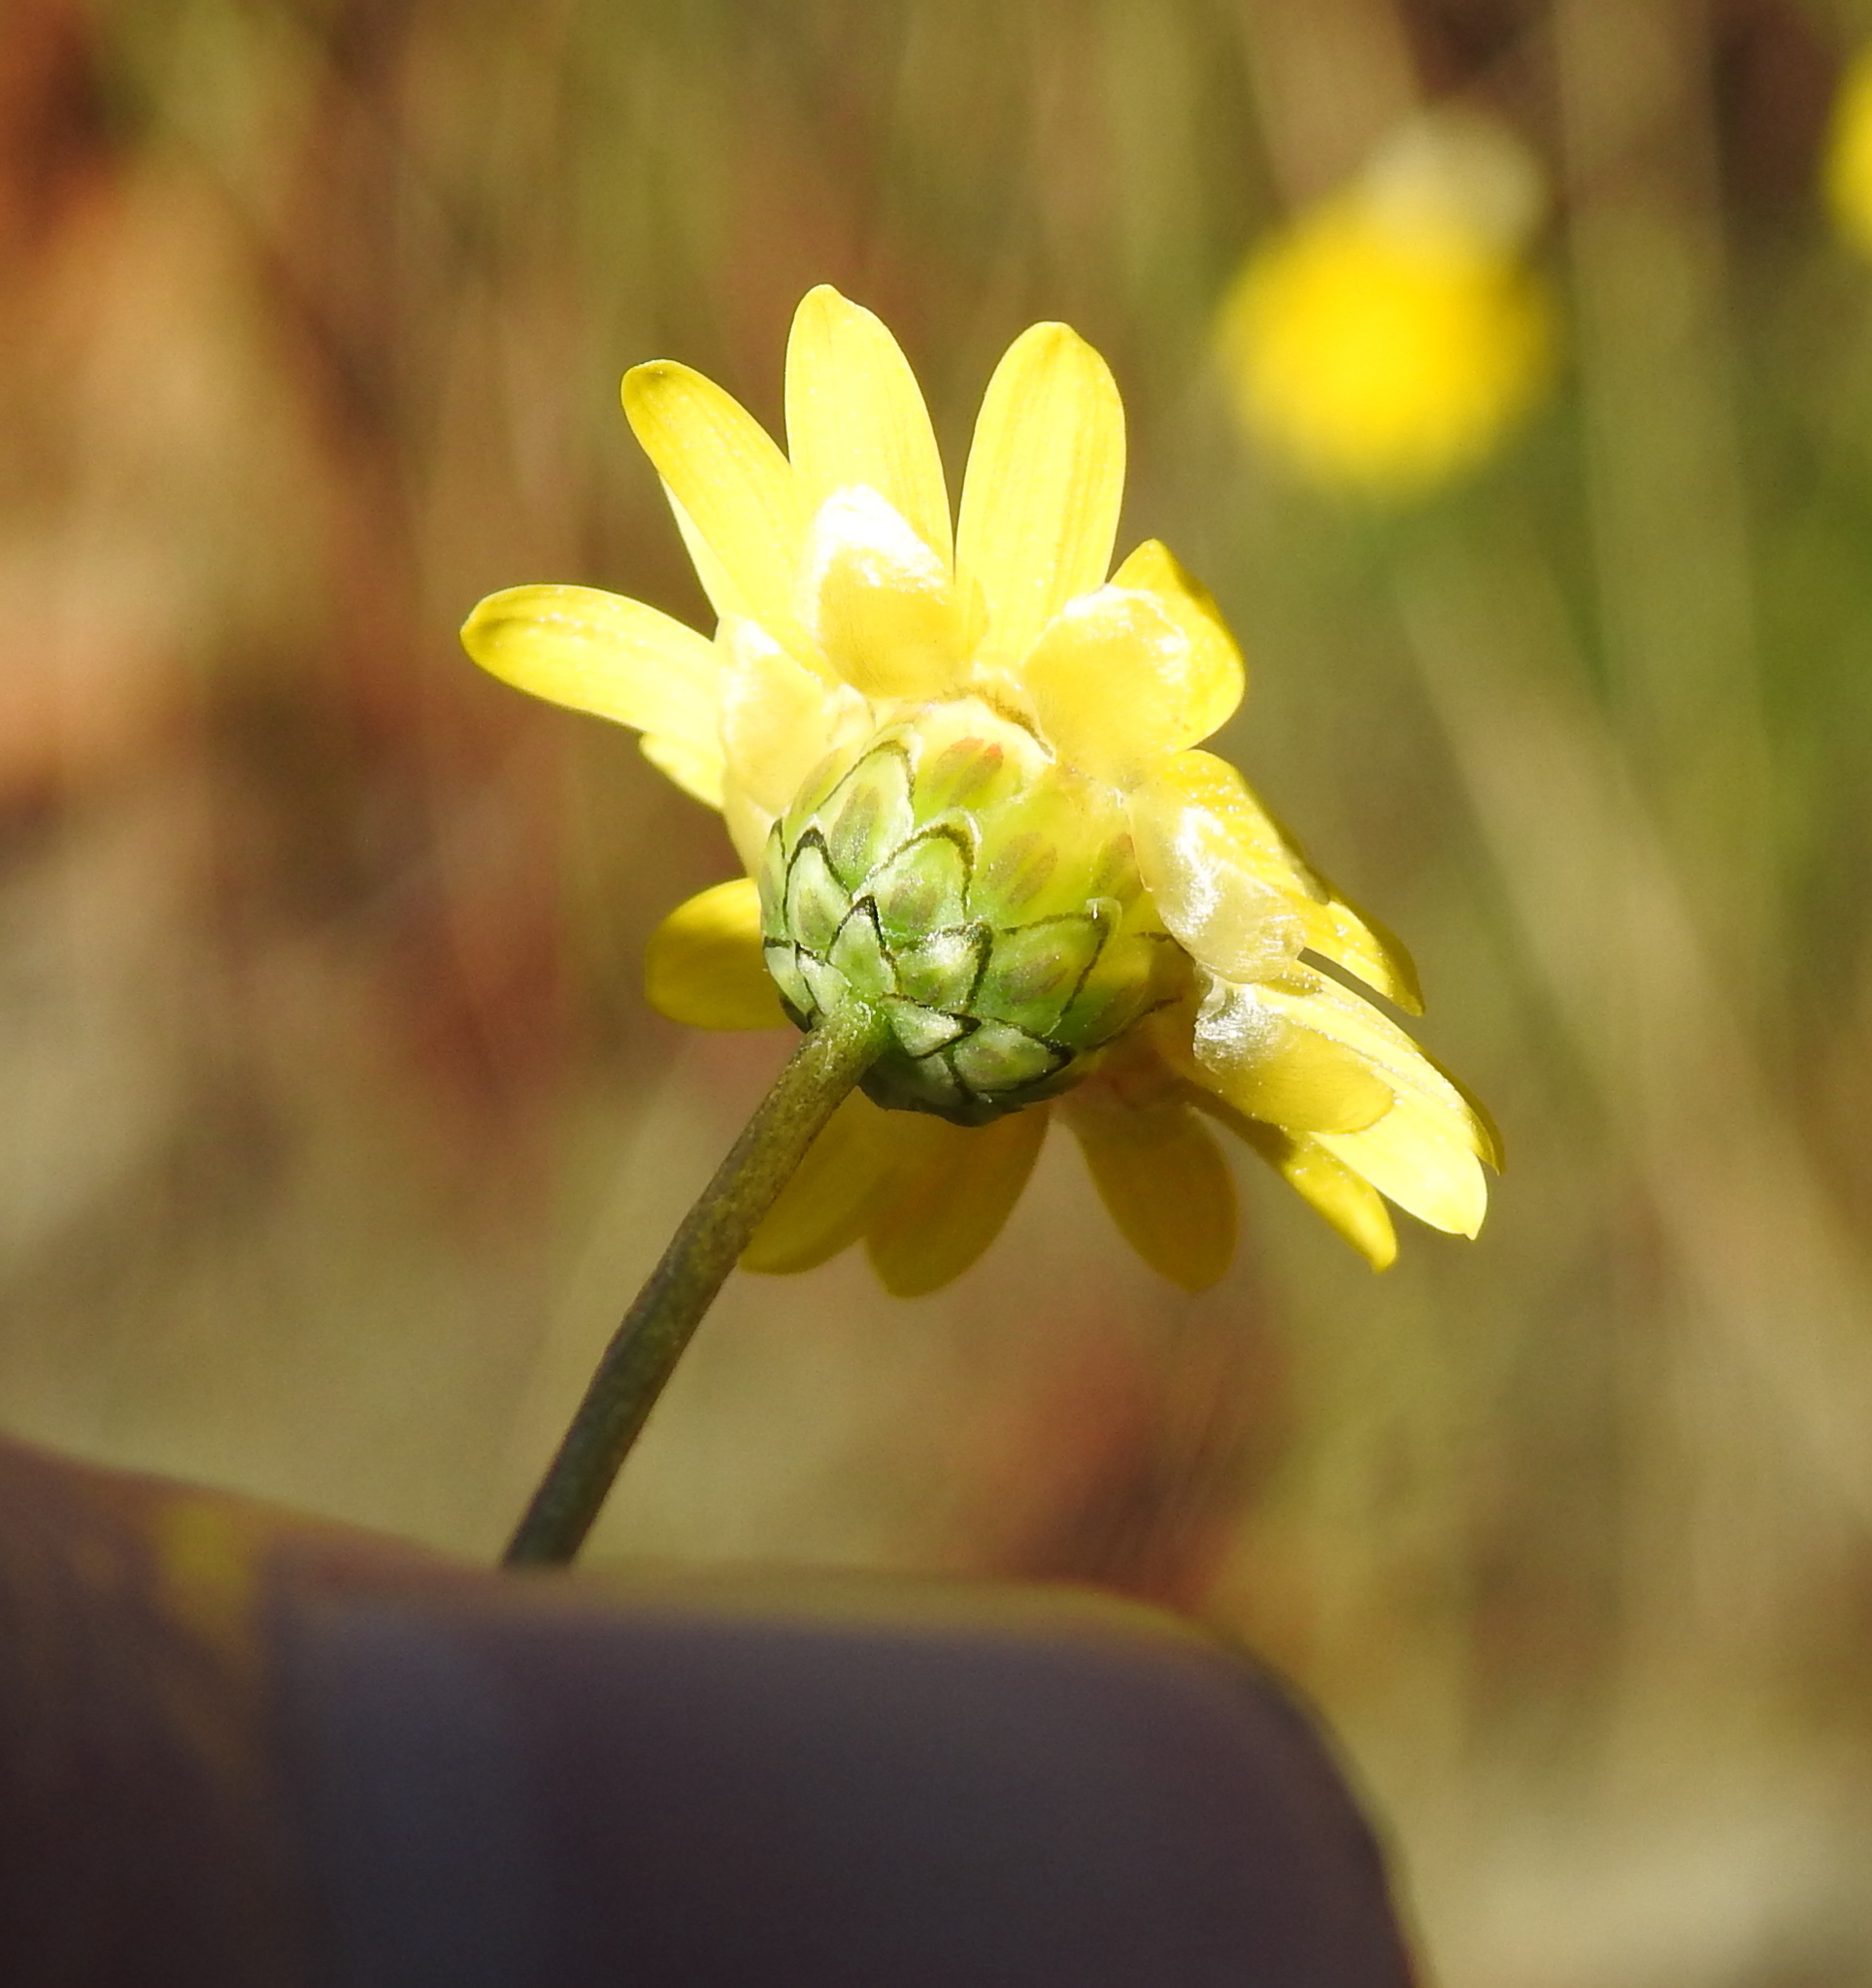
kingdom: Plantae
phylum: Tracheophyta
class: Magnoliopsida
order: Asterales
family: Asteraceae
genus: Ursinia
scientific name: Ursinia nana
